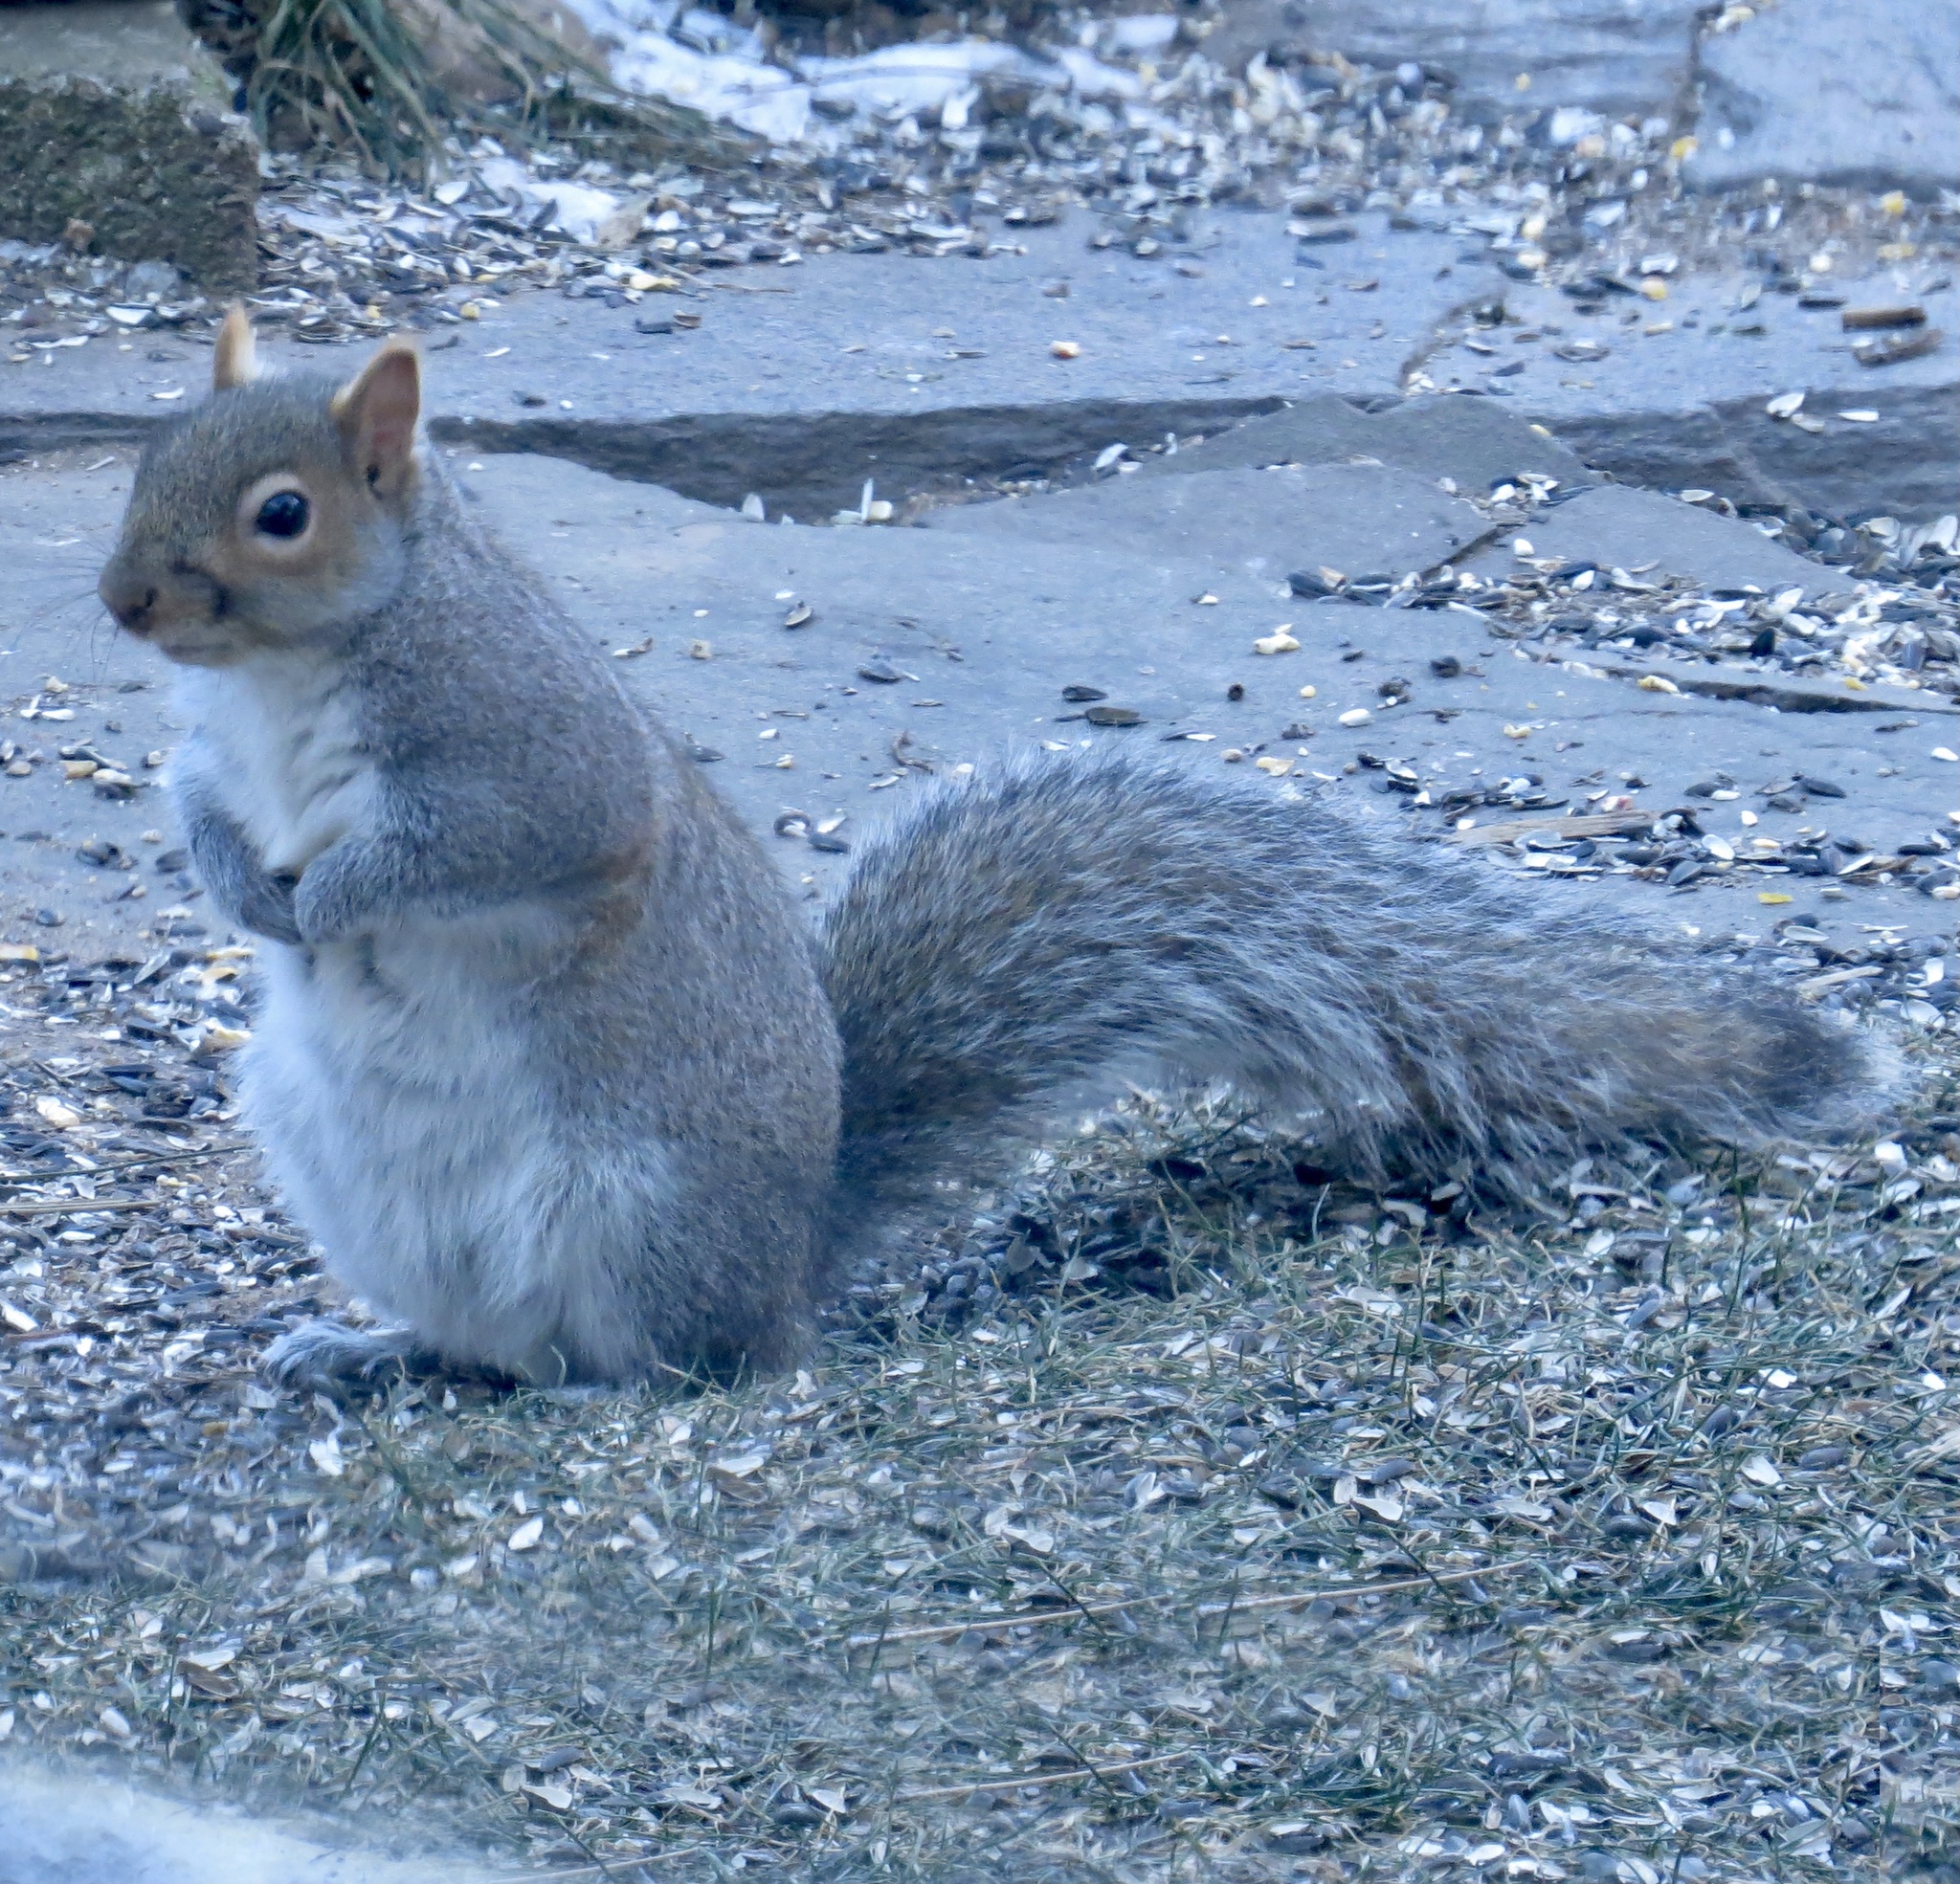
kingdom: Animalia
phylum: Chordata
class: Mammalia
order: Rodentia
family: Sciuridae
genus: Sciurus
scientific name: Sciurus carolinensis
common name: Eastern gray squirrel
